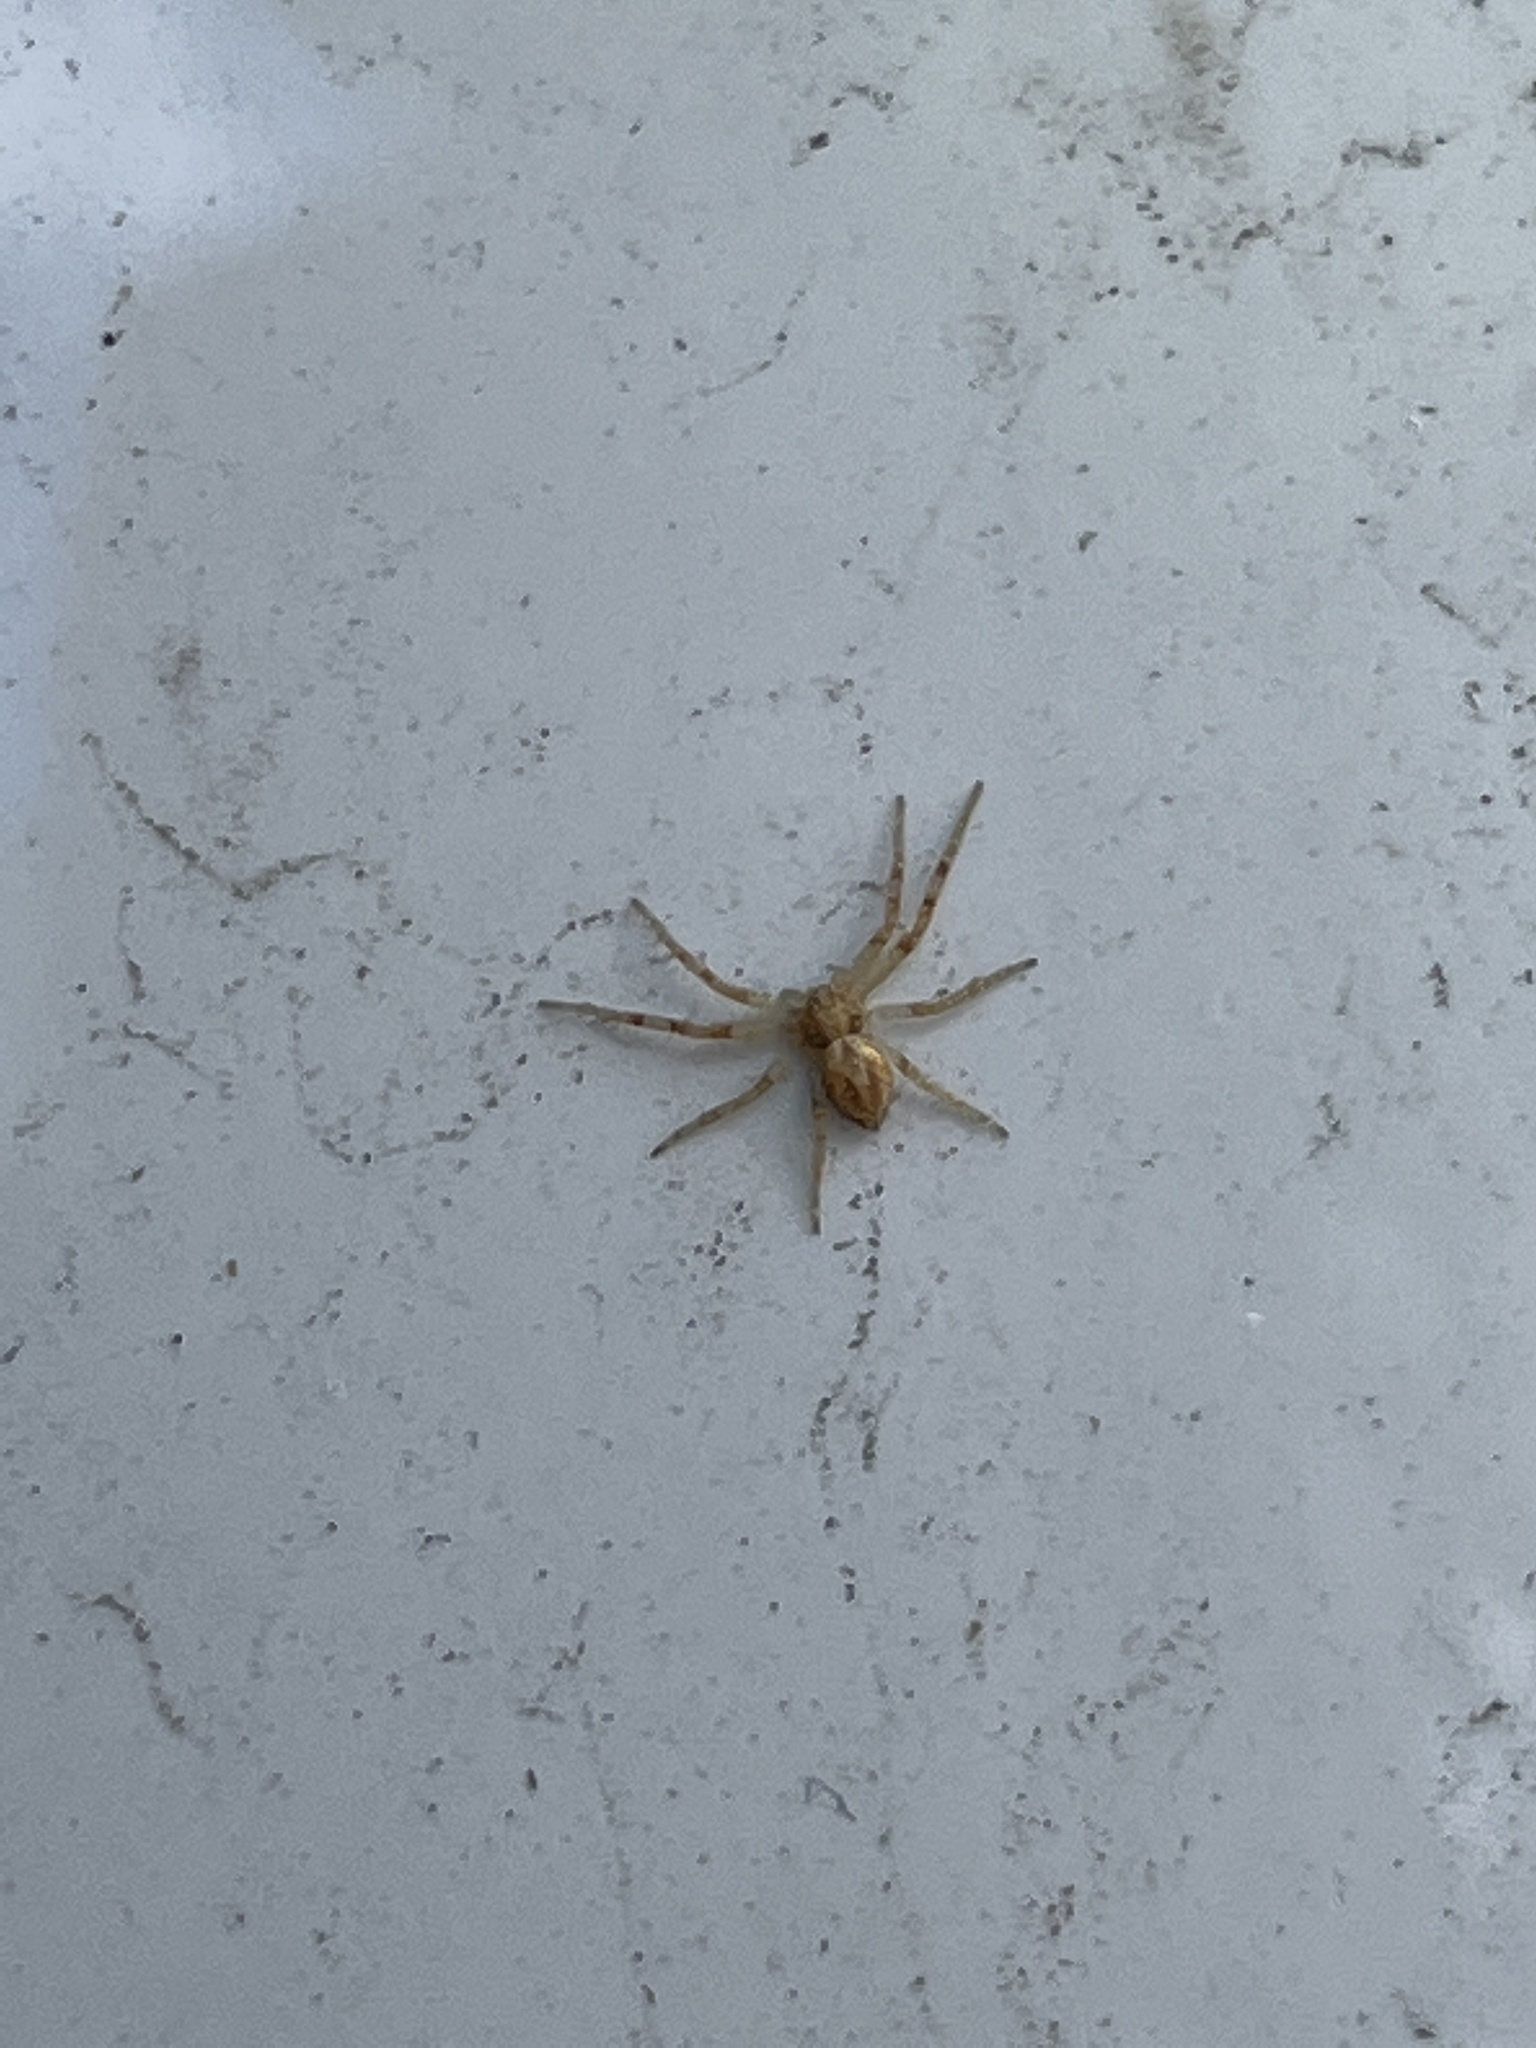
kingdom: Animalia
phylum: Arthropoda
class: Arachnida
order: Araneae
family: Philodromidae
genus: Philodromus
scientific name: Philodromus
